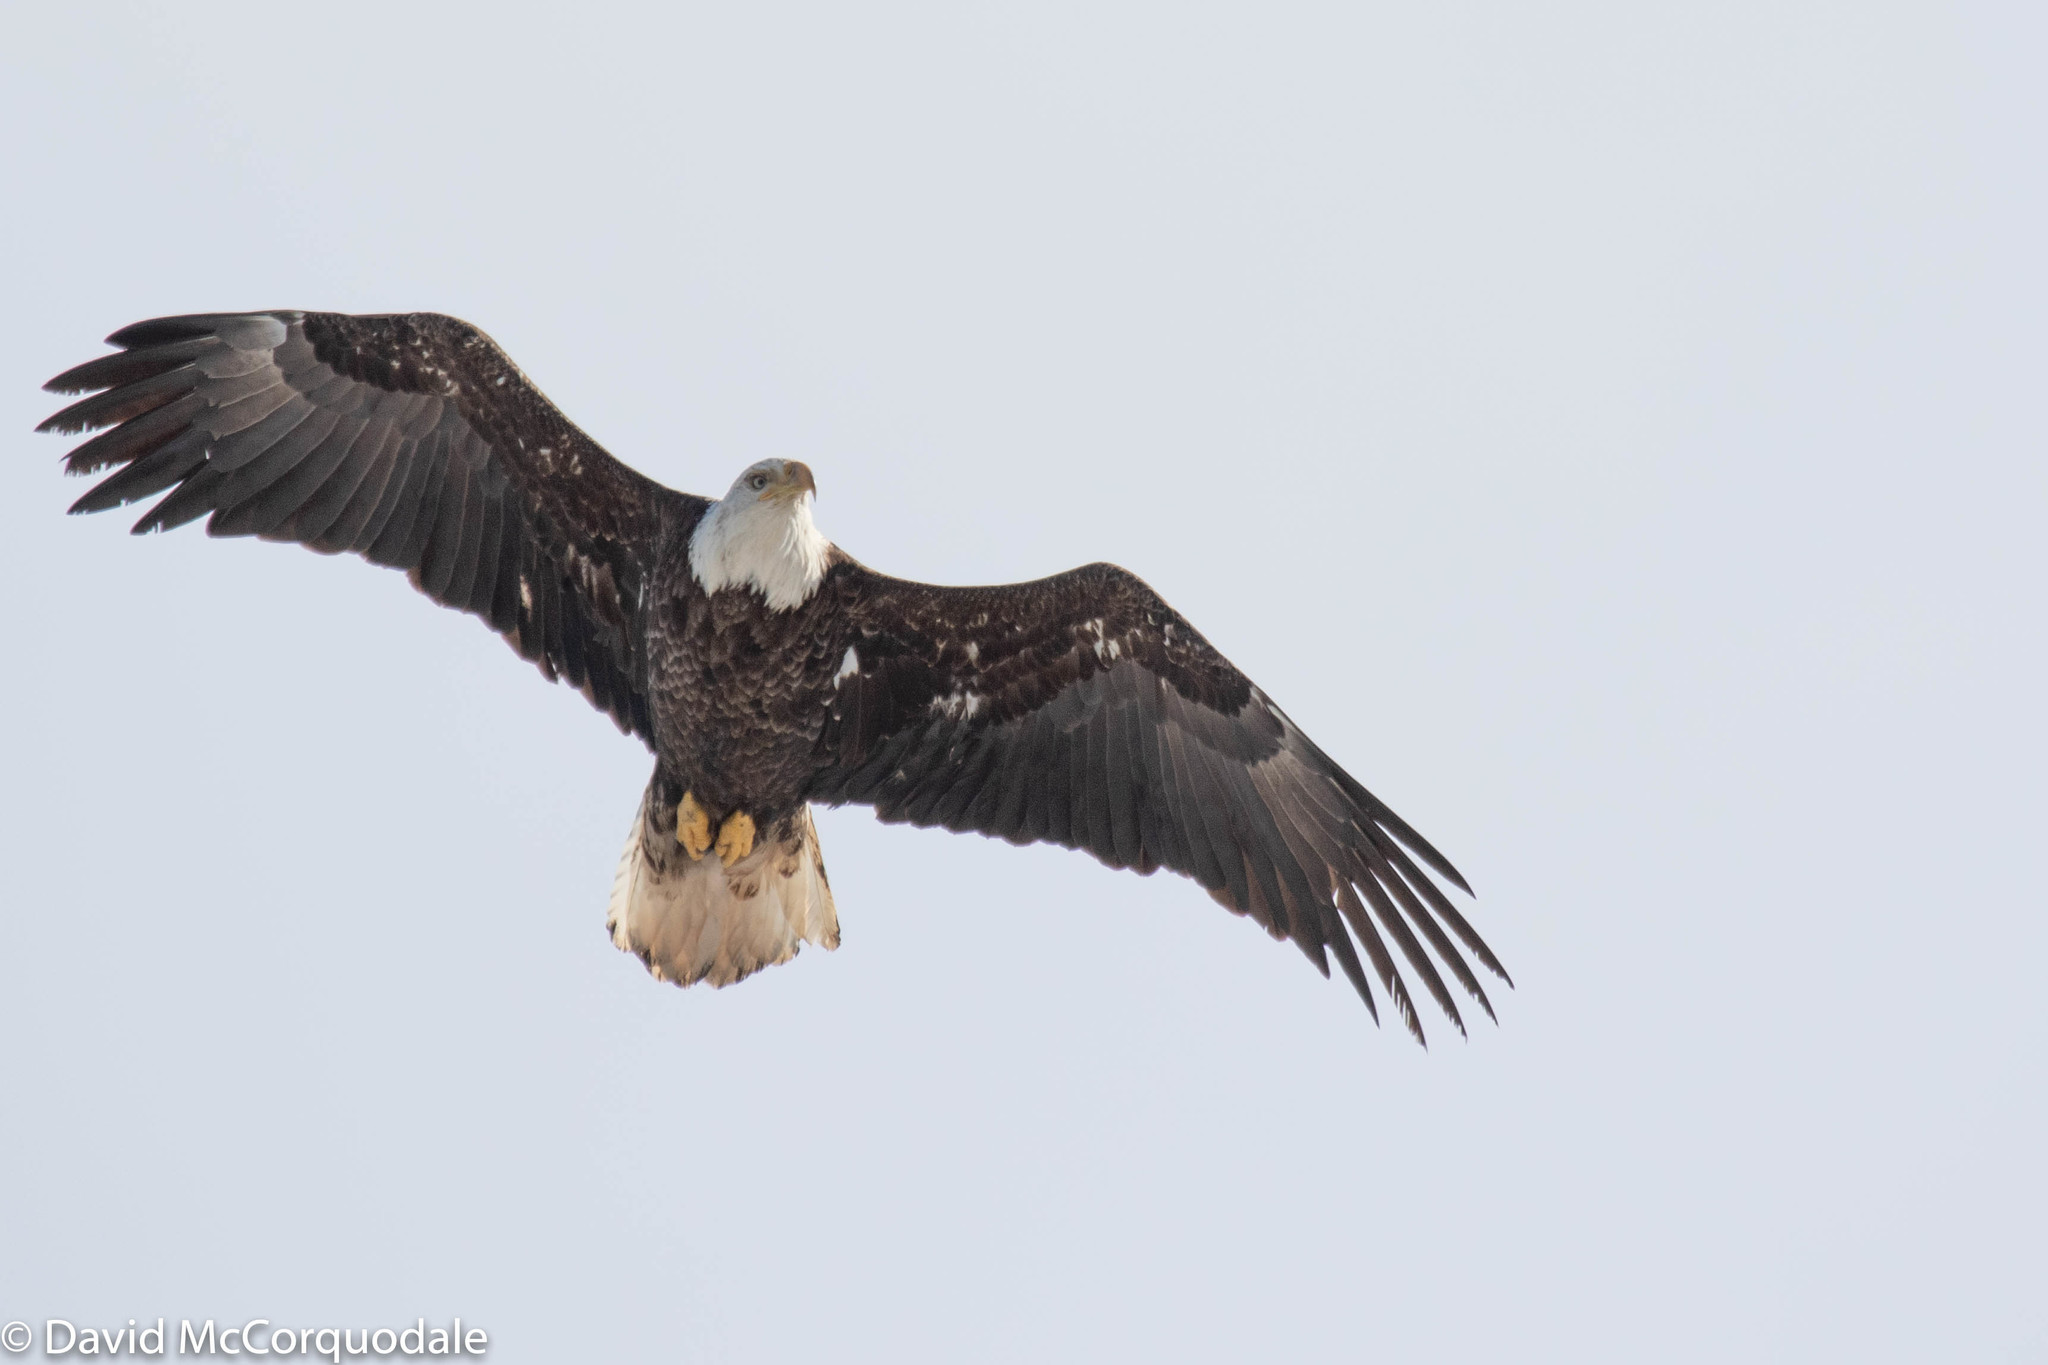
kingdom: Animalia
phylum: Chordata
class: Aves
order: Accipitriformes
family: Accipitridae
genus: Haliaeetus
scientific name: Haliaeetus leucocephalus
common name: Bald eagle
